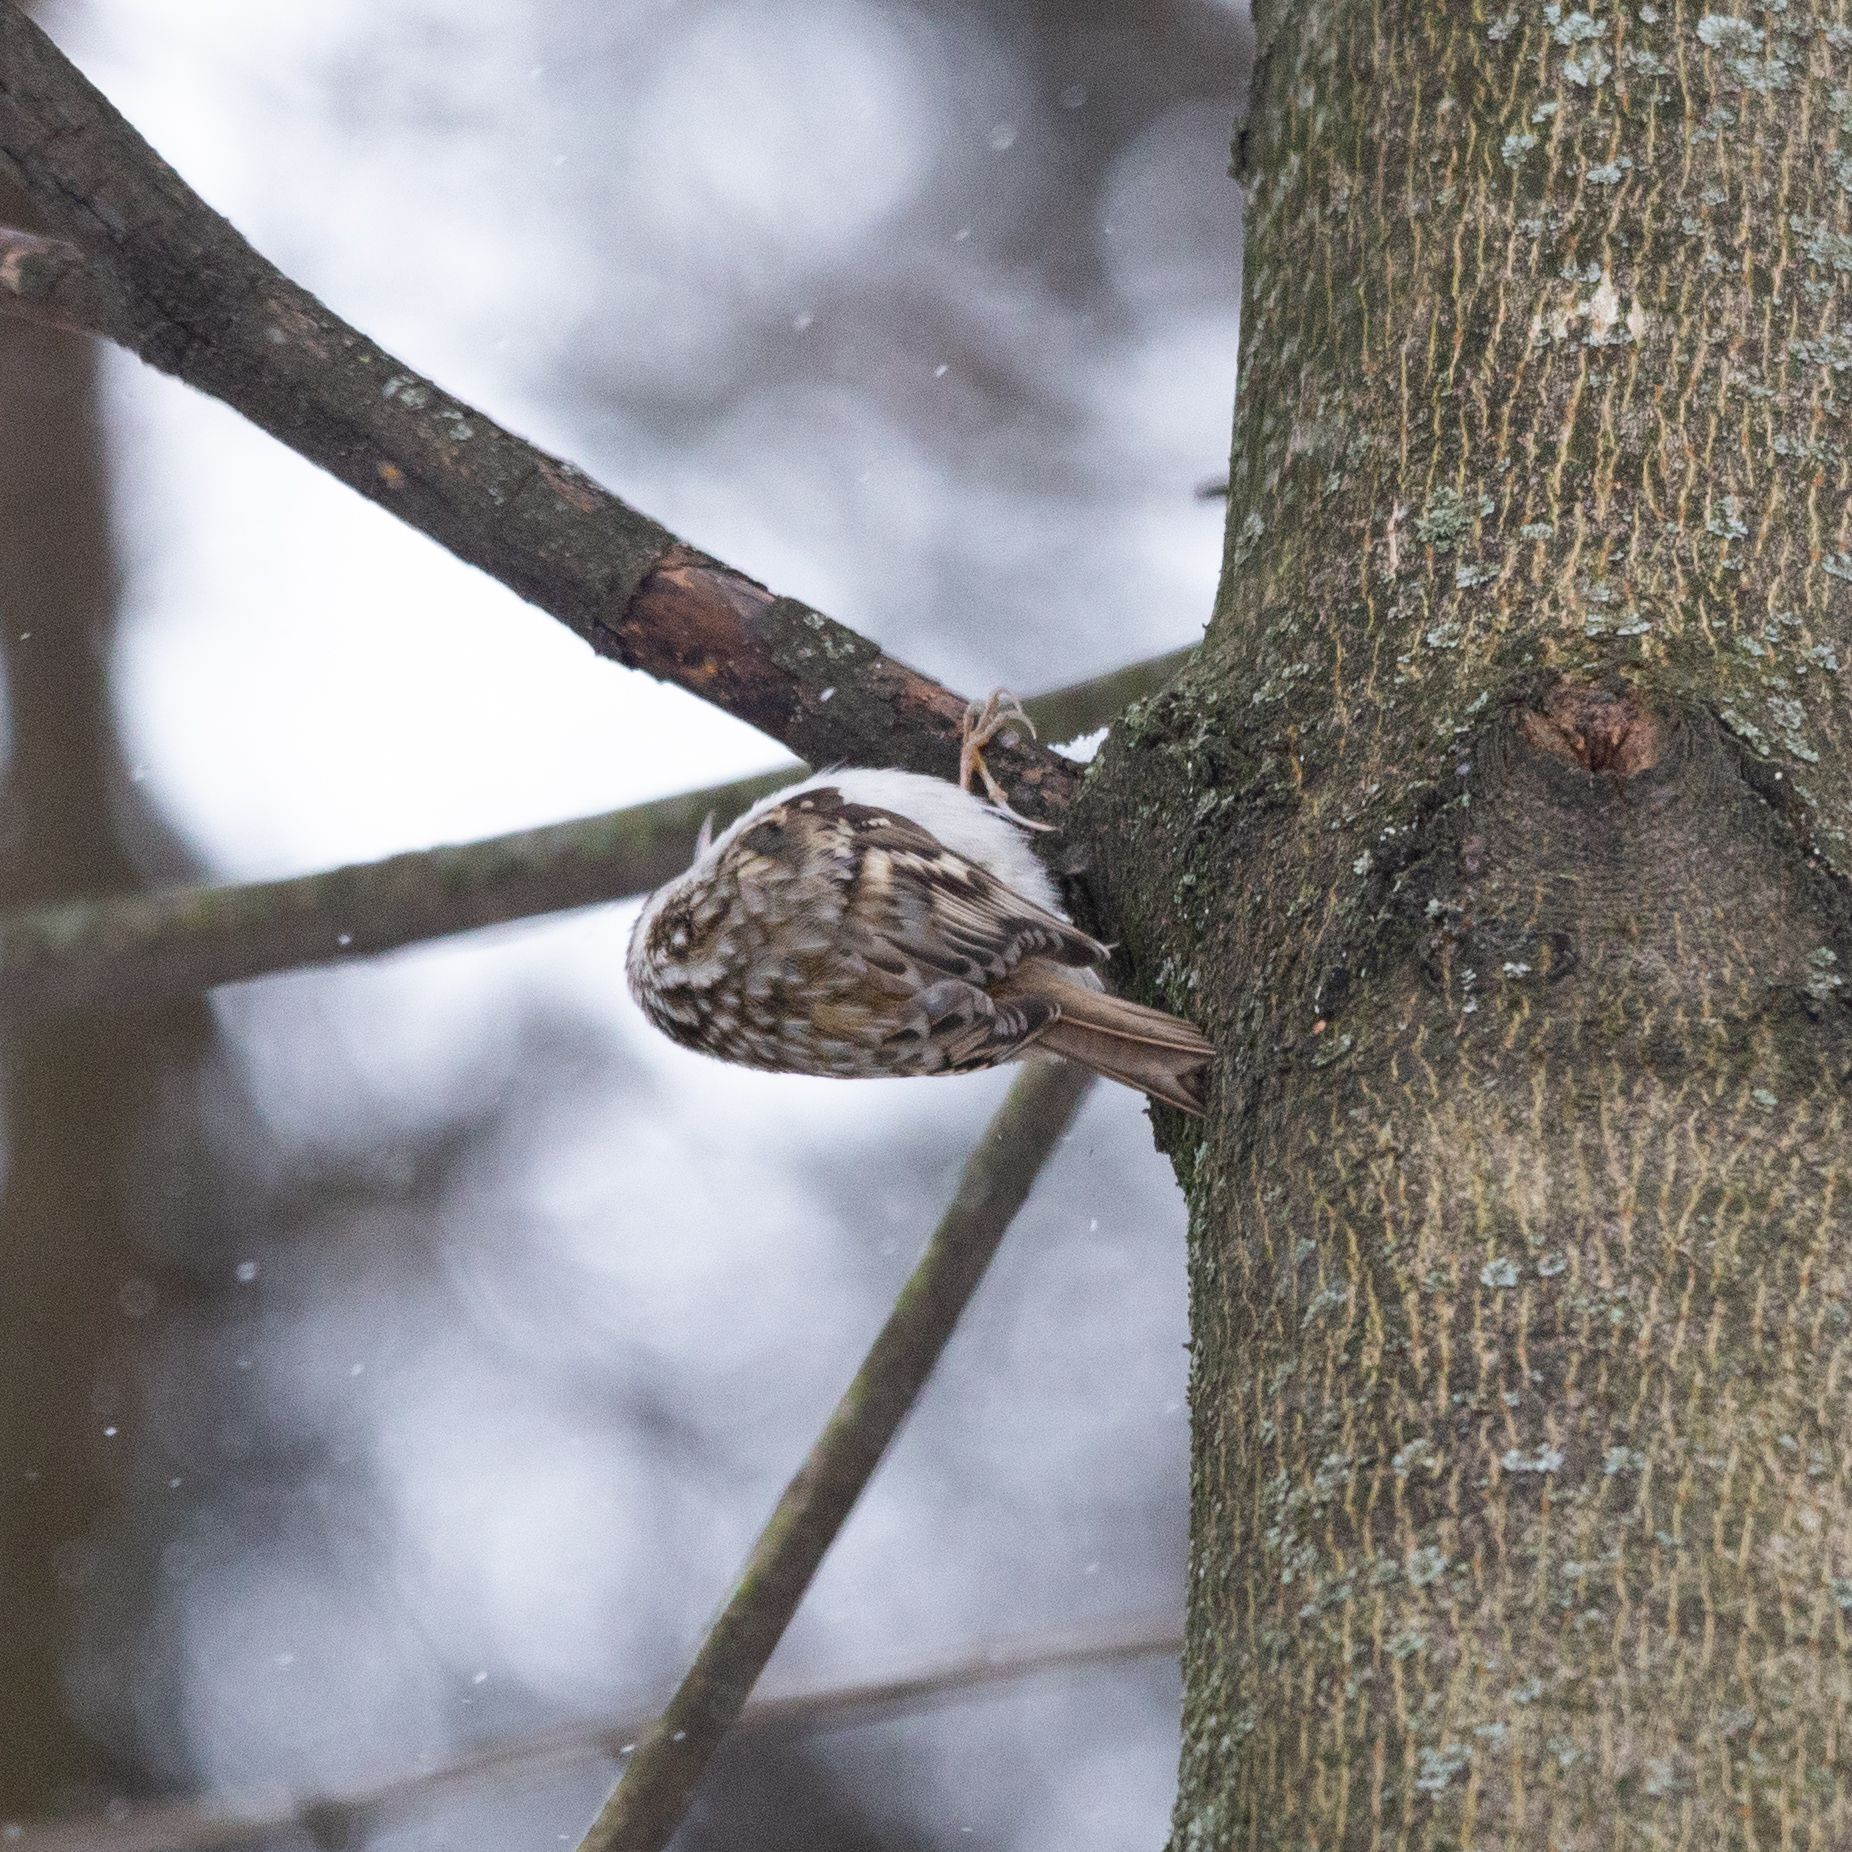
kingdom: Animalia
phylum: Chordata
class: Aves
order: Passeriformes
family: Certhiidae
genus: Certhia
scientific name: Certhia familiaris
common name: Eurasian treecreeper
